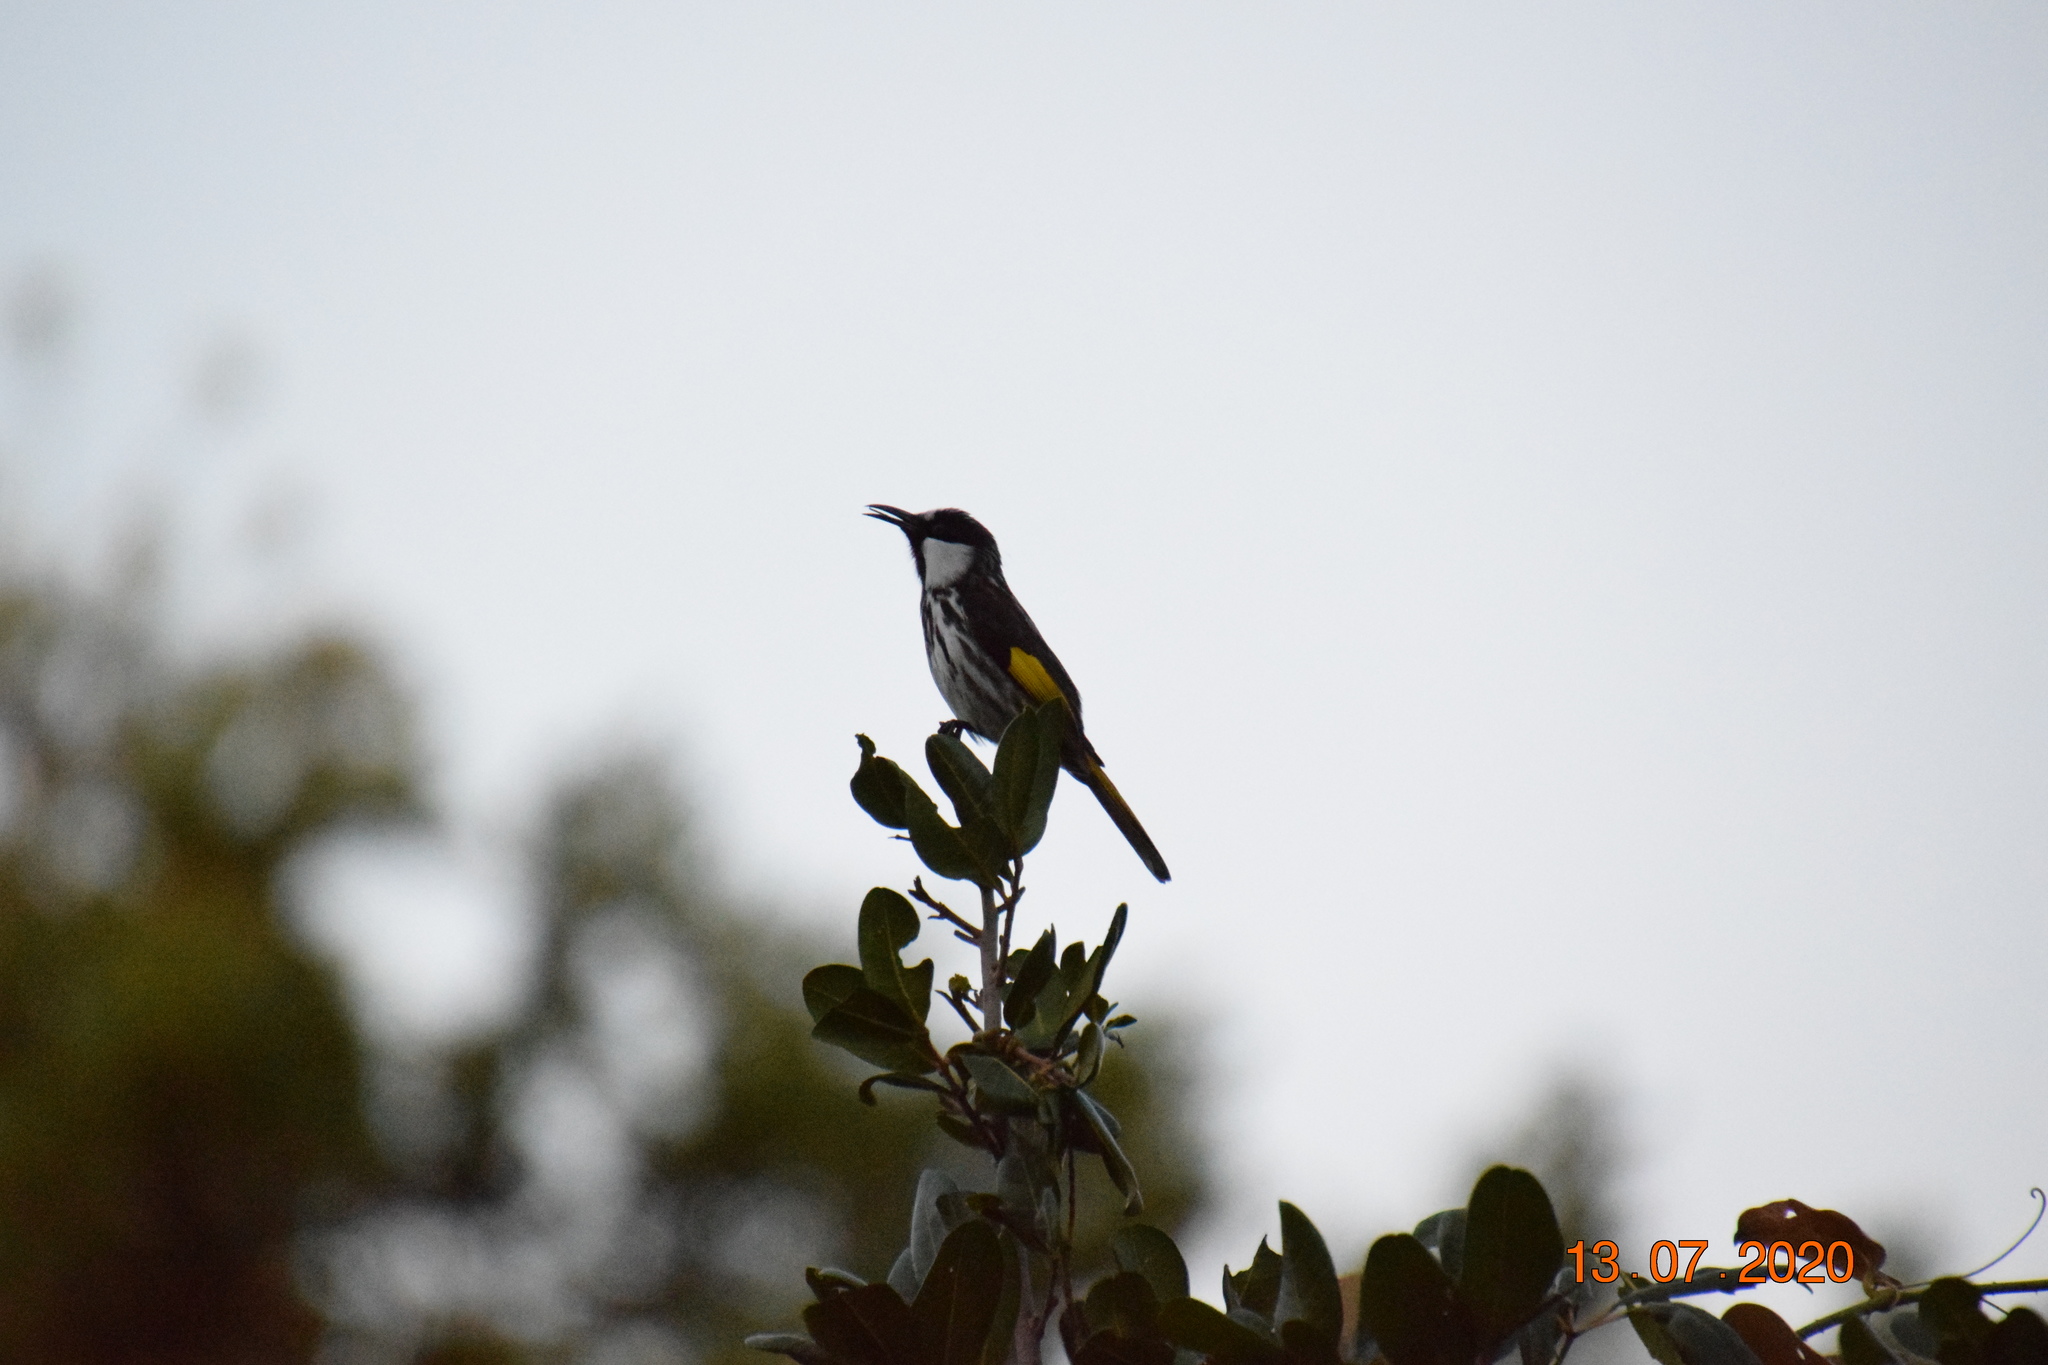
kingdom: Animalia
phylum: Chordata
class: Aves
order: Passeriformes
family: Meliphagidae
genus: Phylidonyris
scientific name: Phylidonyris niger
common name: White-cheeked honeyeater
